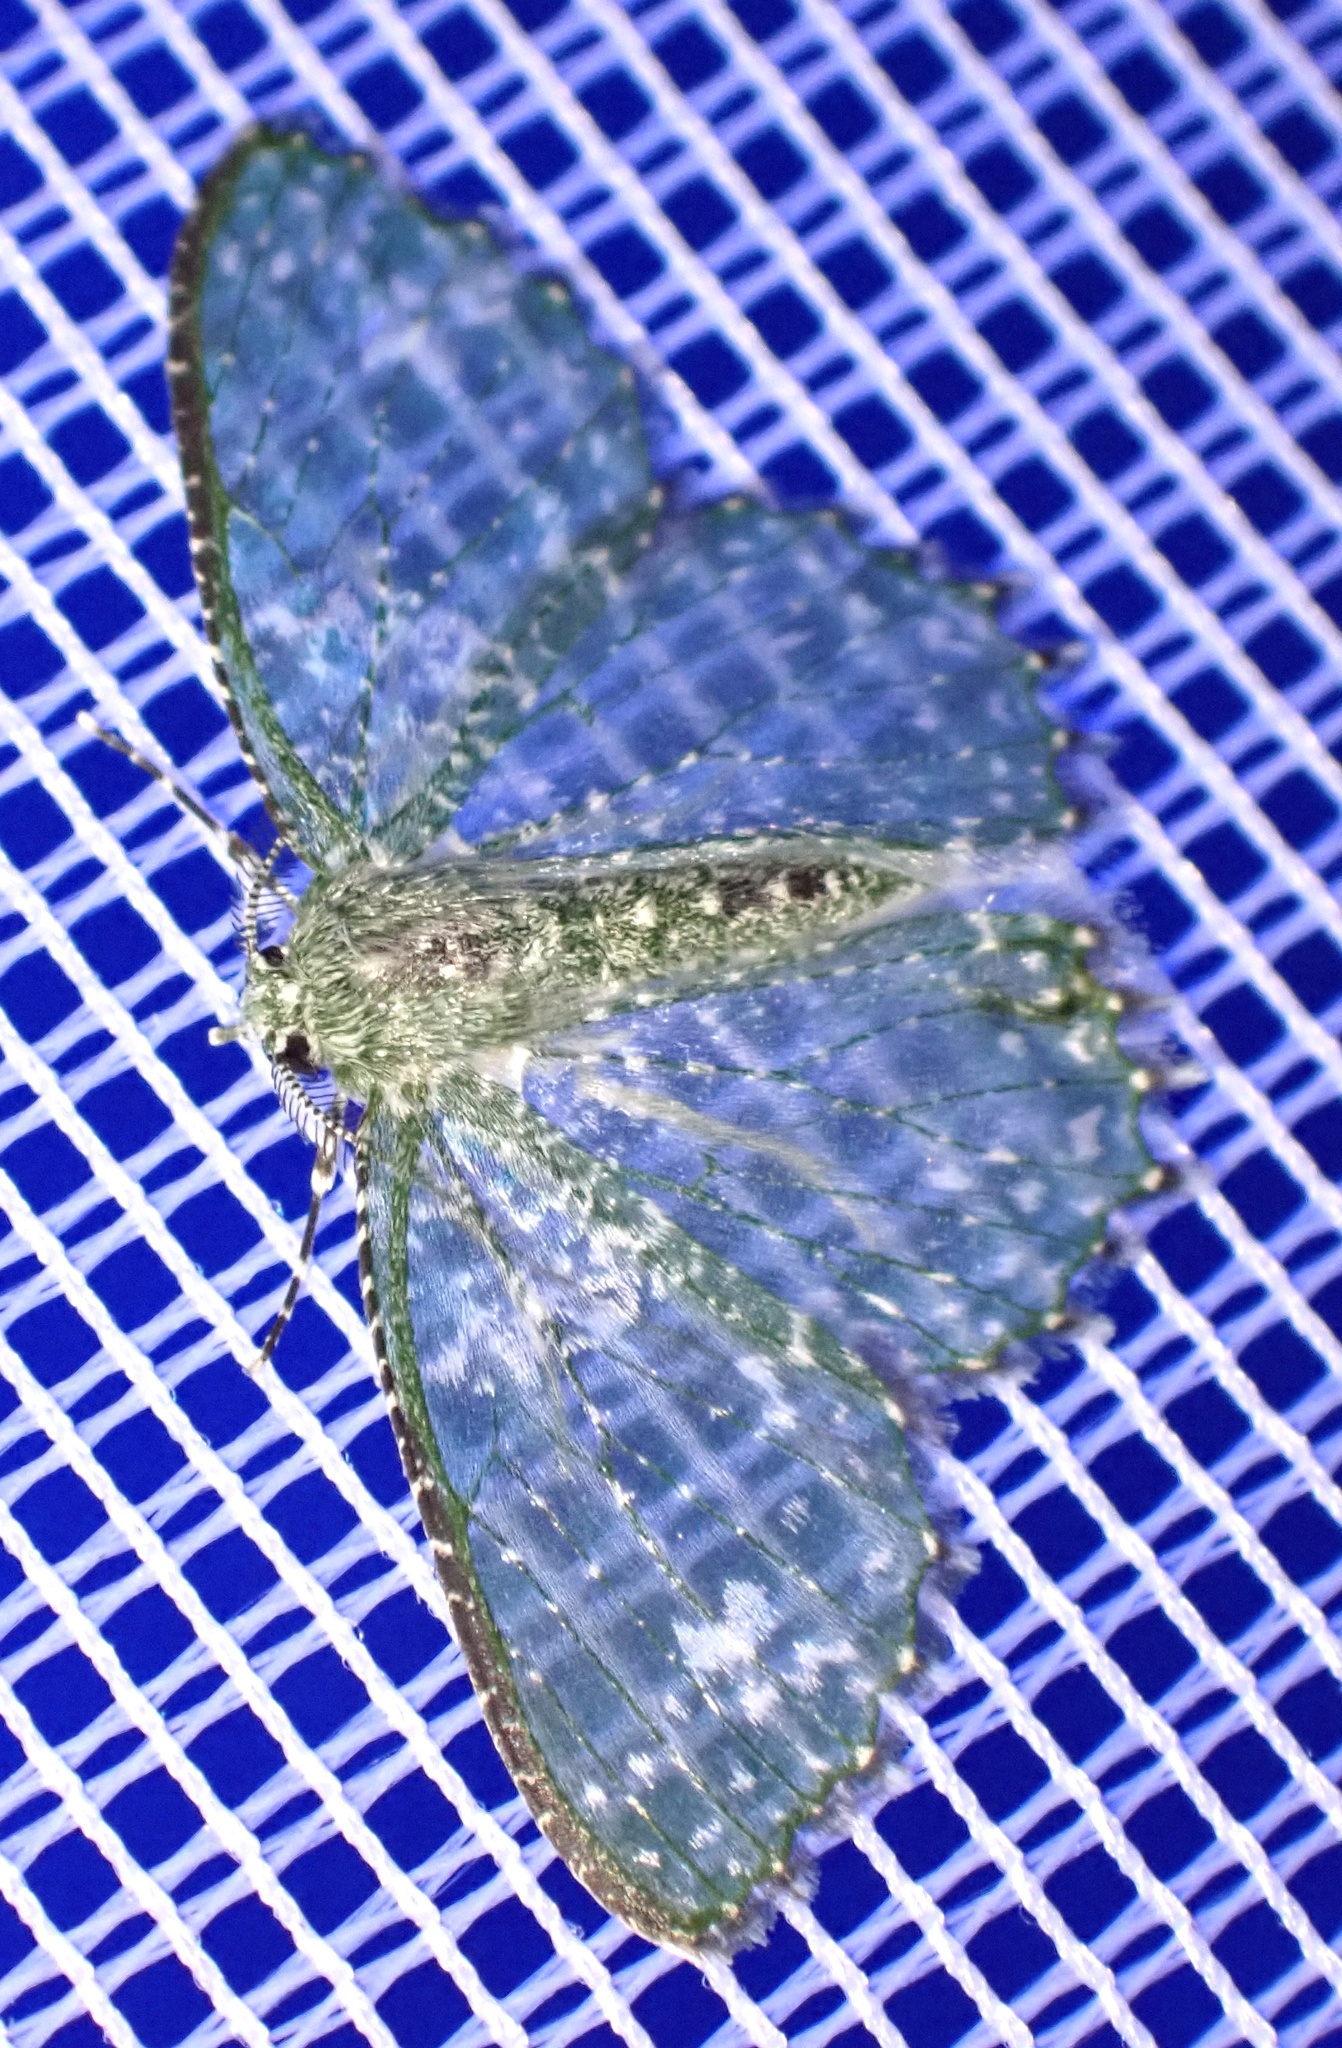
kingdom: Animalia
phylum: Arthropoda
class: Insecta
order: Lepidoptera
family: Geometridae
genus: Eucyclodes
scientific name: Eucyclodes iridescens
